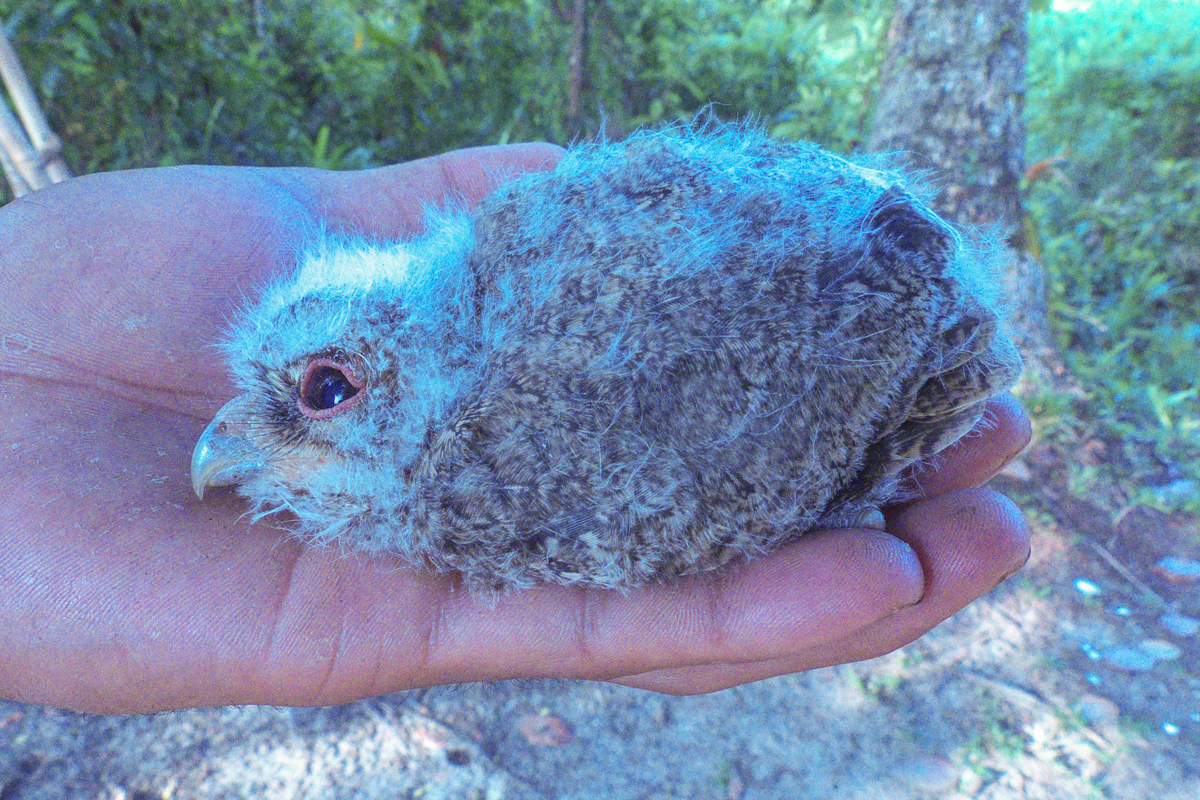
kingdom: Animalia
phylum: Chordata
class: Aves
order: Strigiformes
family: Strigidae
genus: Otus
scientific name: Otus lettia
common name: Collared scops owl
